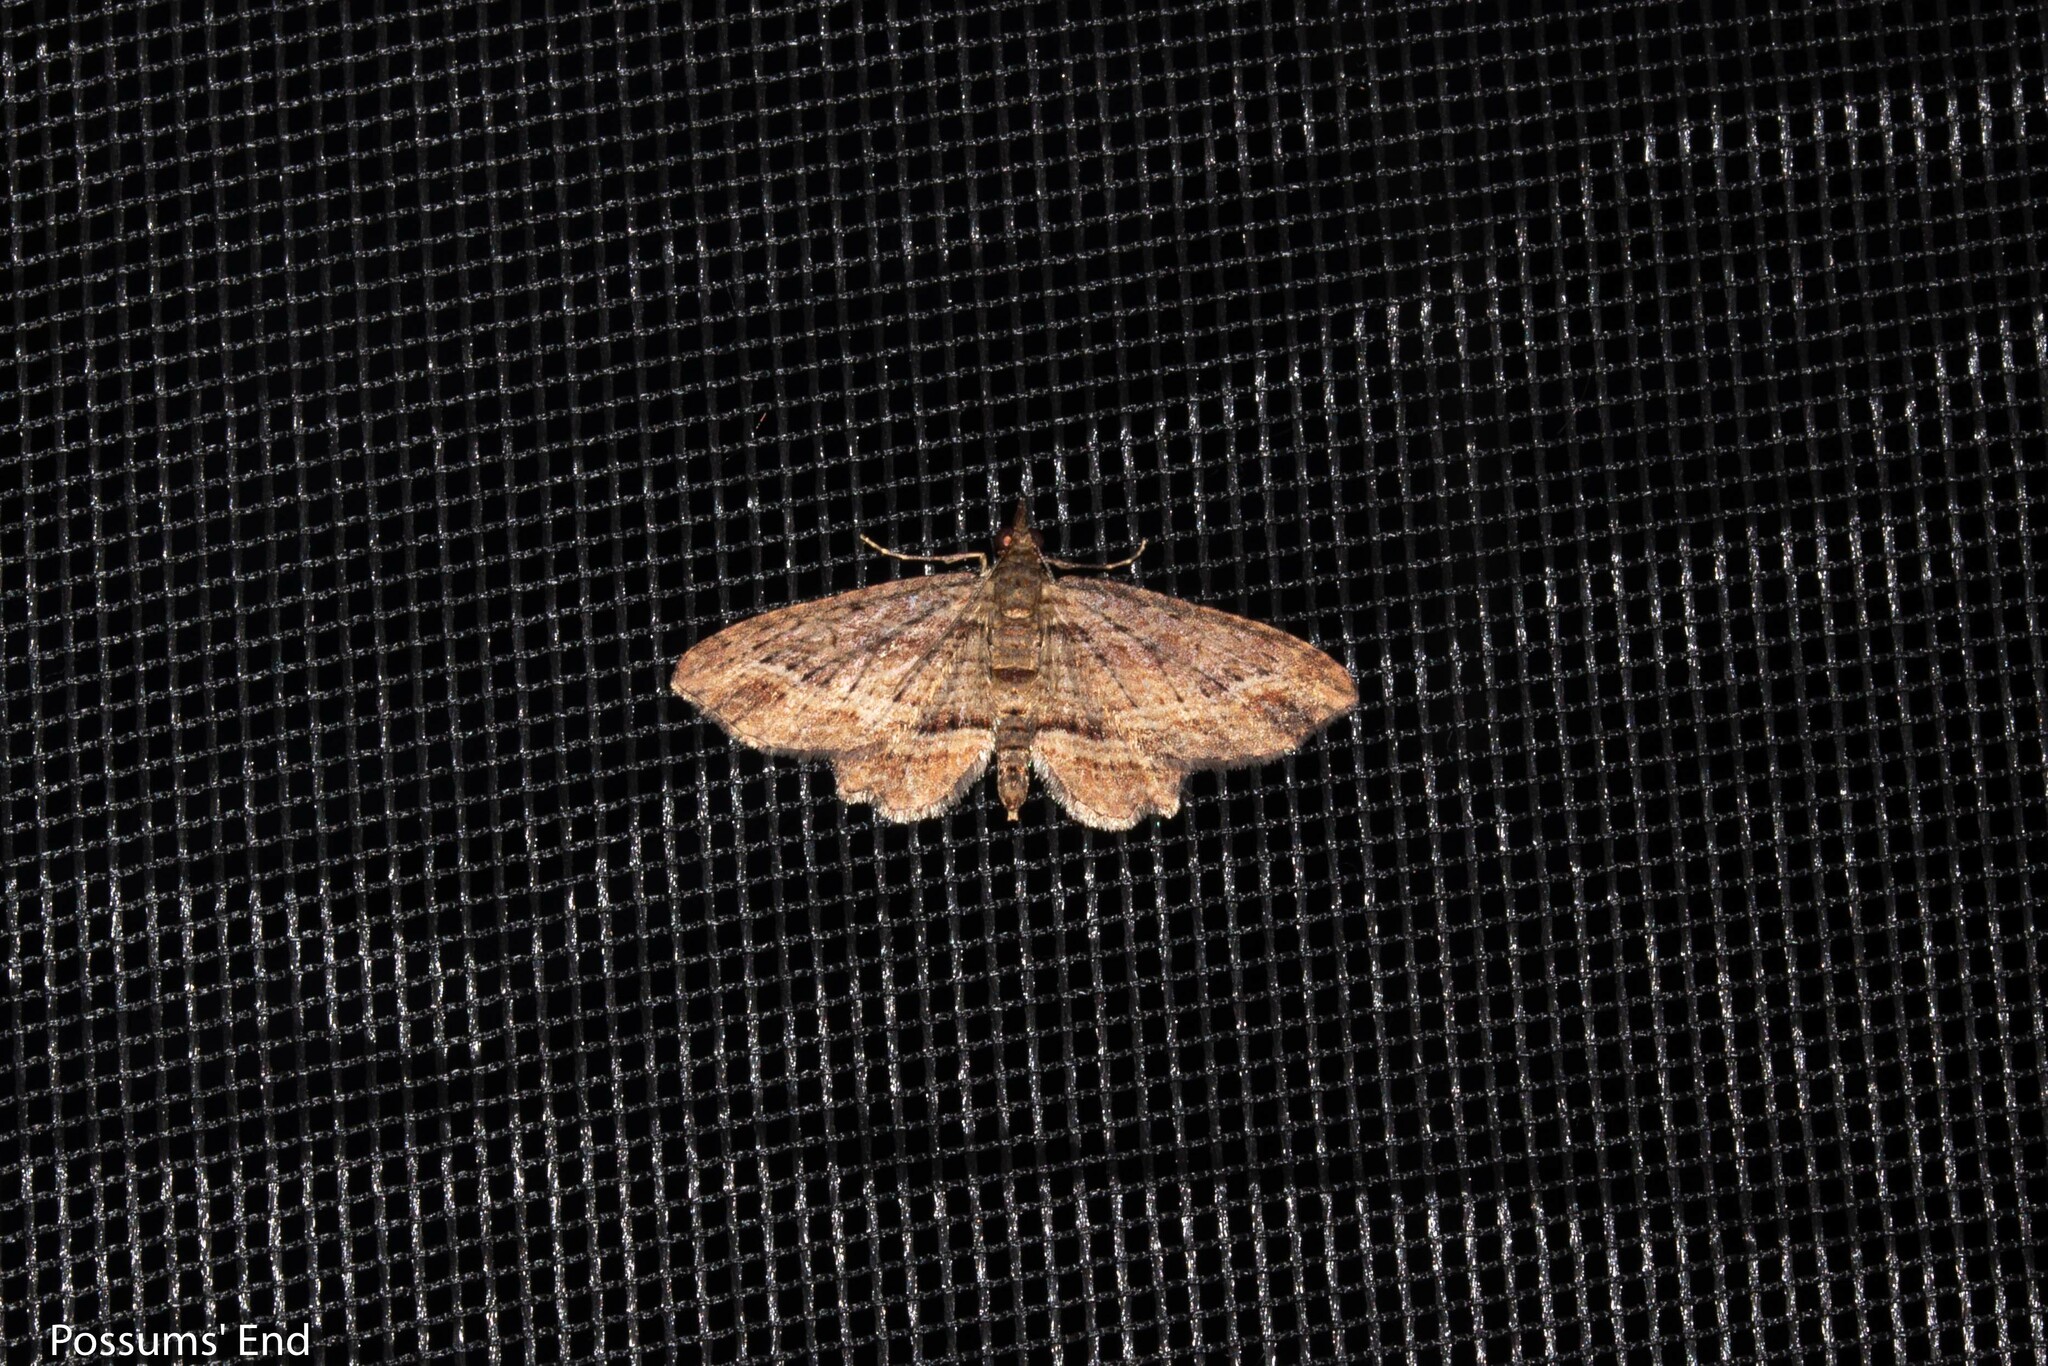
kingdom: Animalia
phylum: Arthropoda
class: Insecta
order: Lepidoptera
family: Geometridae
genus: Chloroclystis
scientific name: Chloroclystis filata
